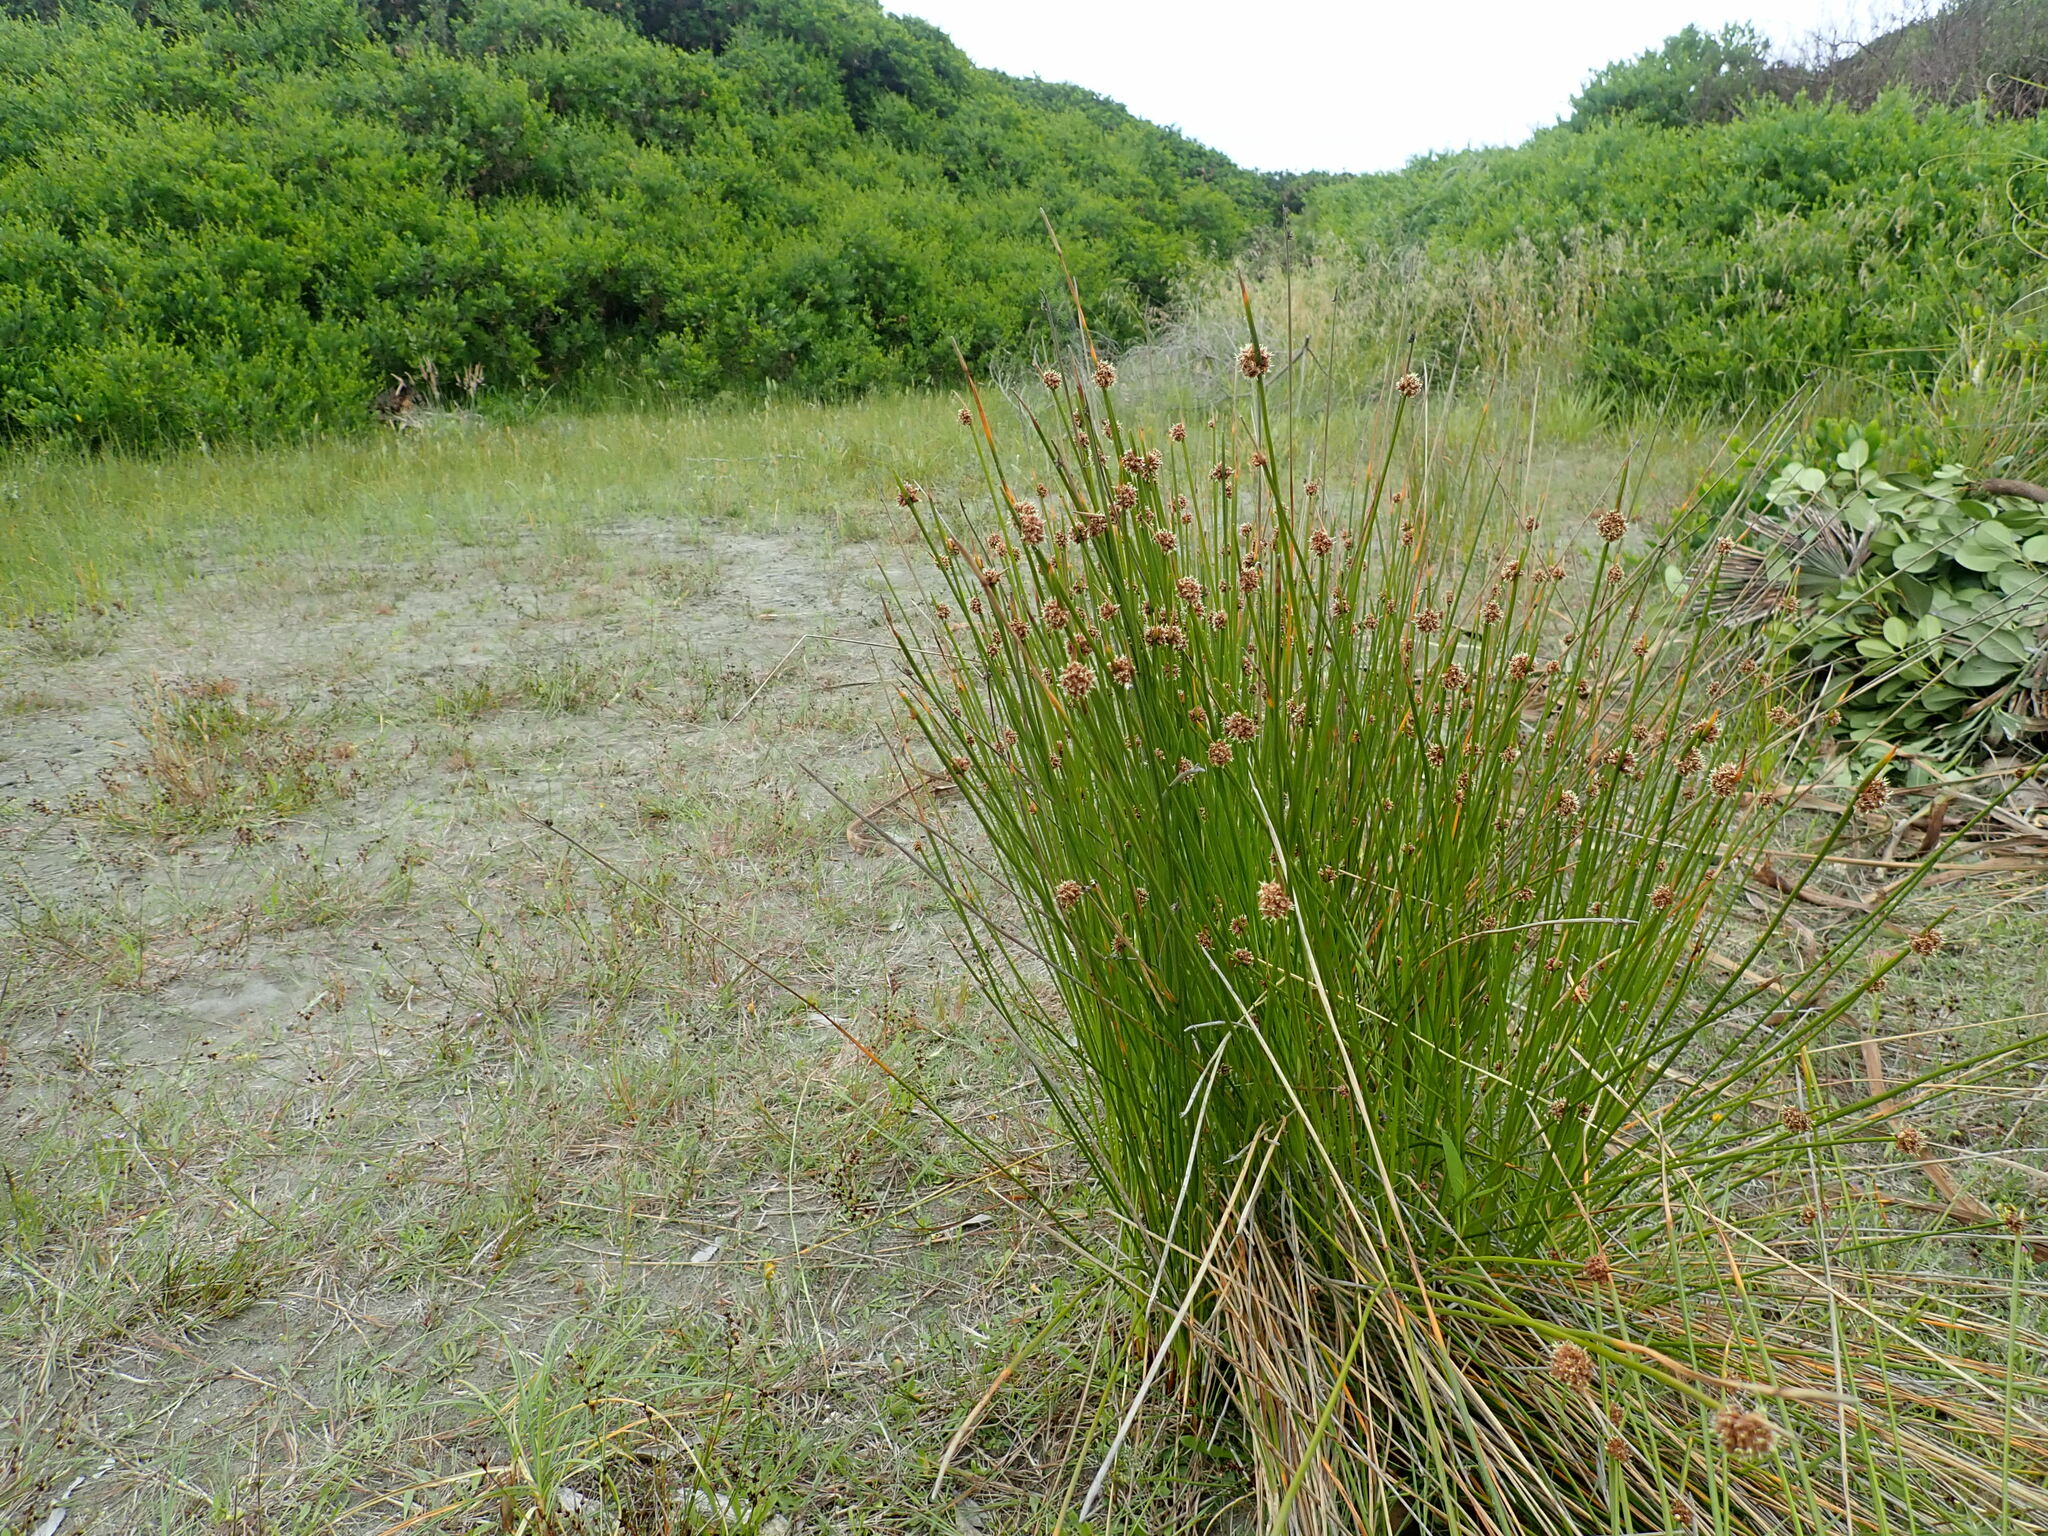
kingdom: Plantae
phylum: Tracheophyta
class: Liliopsida
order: Poales
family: Cyperaceae
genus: Ficinia
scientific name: Ficinia nodosa
